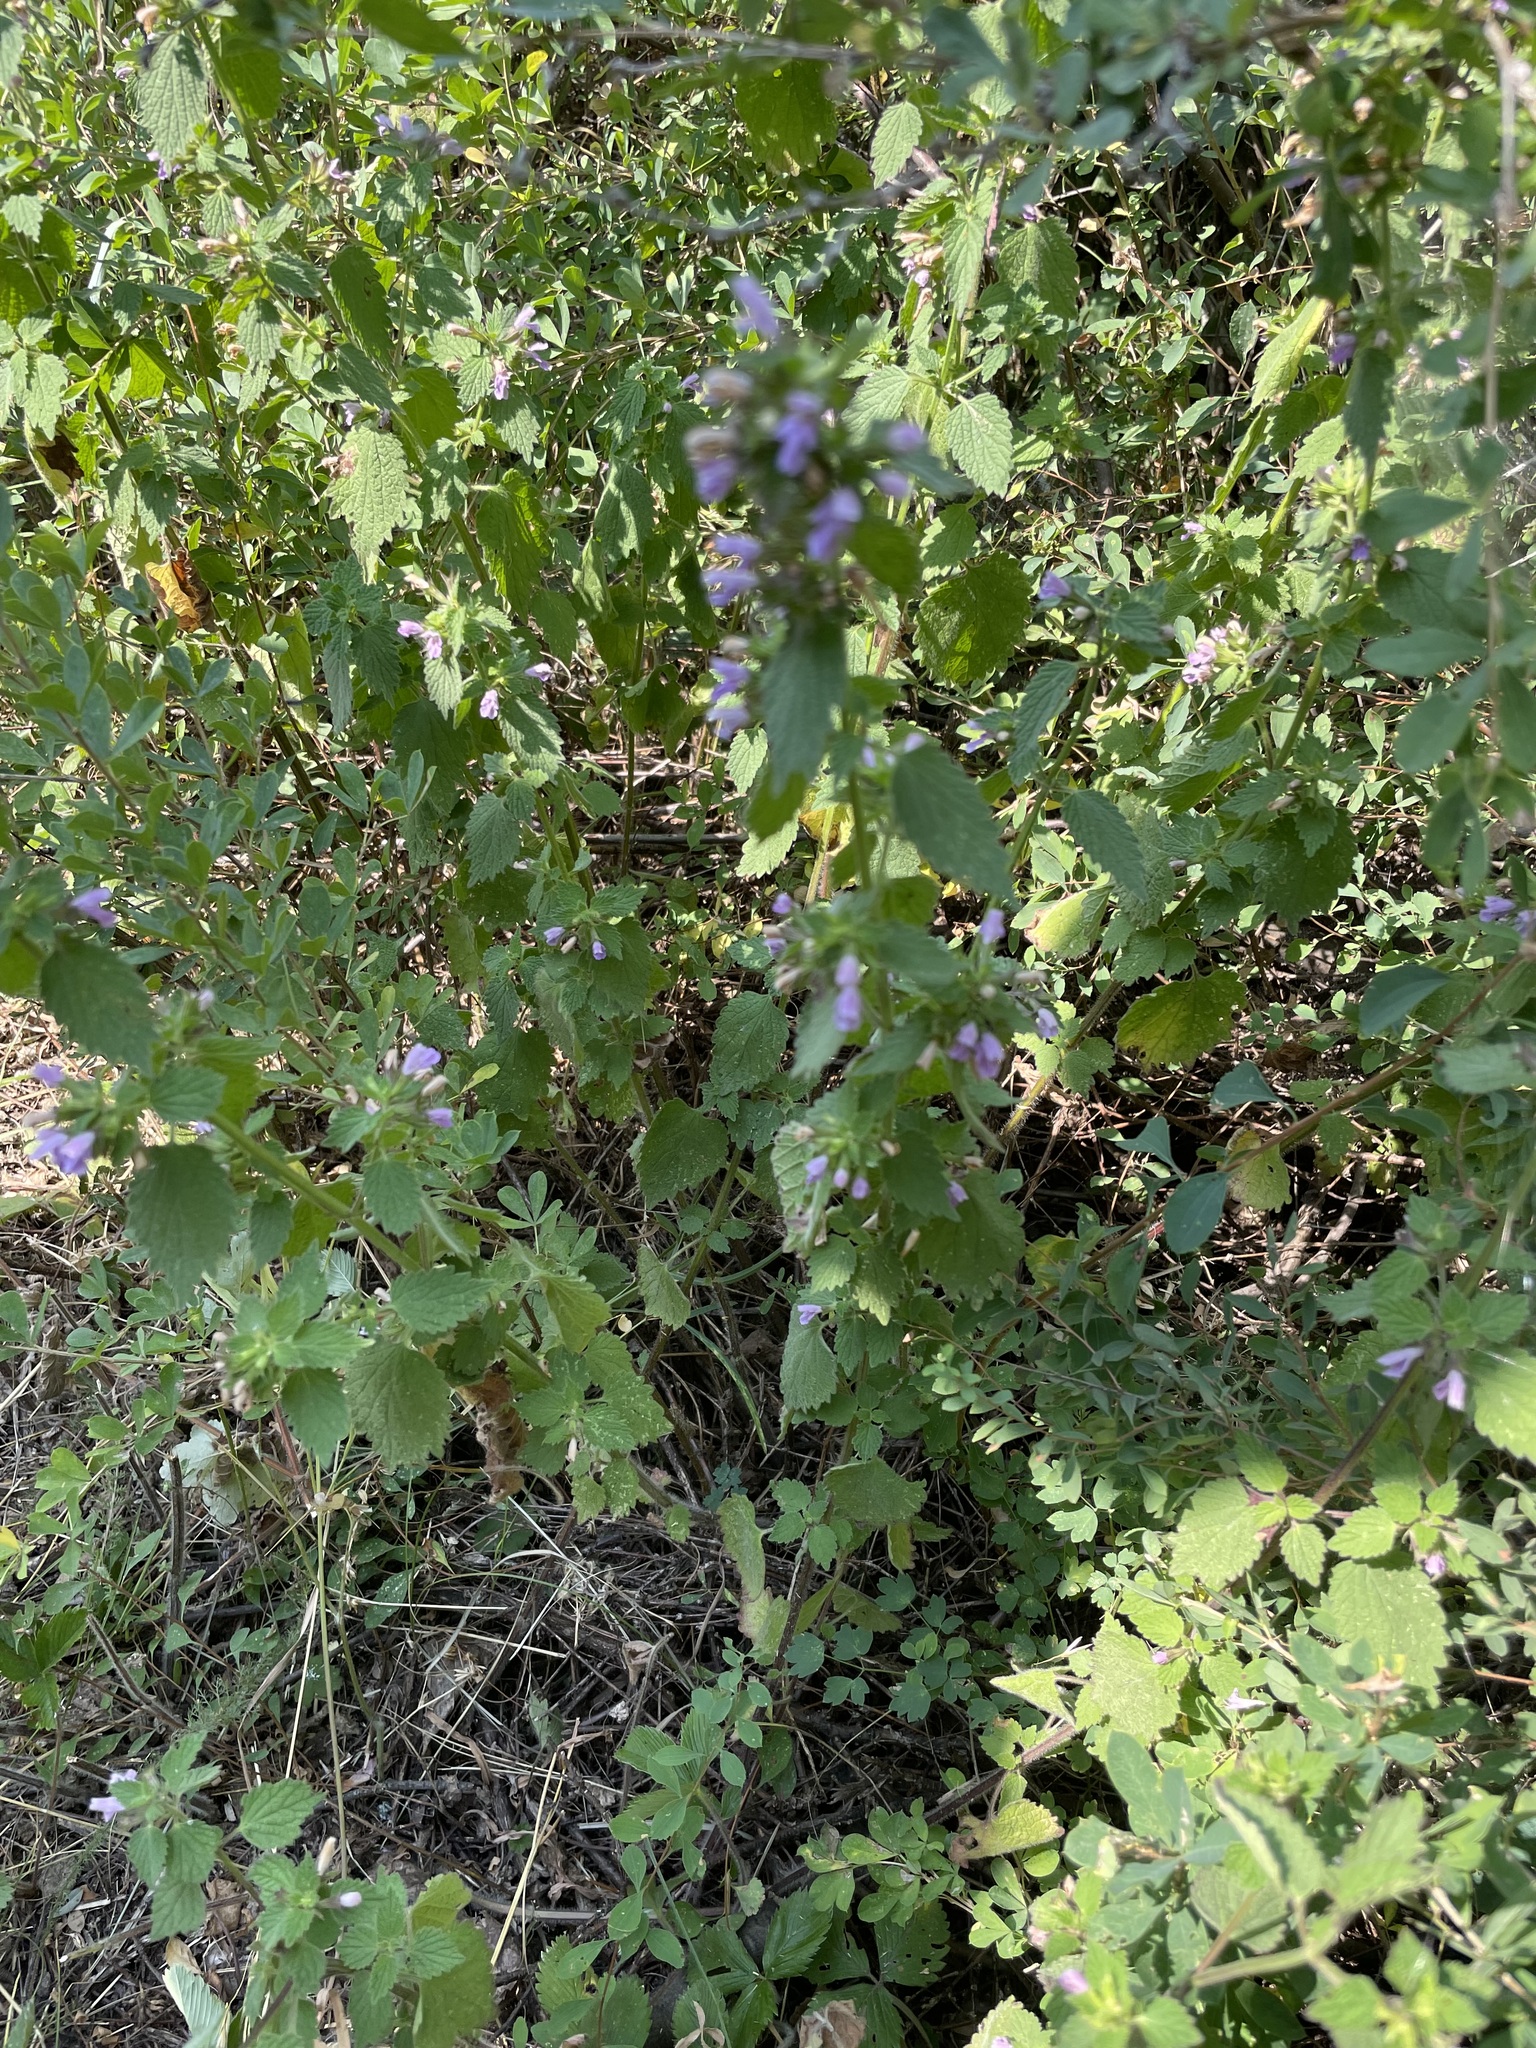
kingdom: Plantae
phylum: Tracheophyta
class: Magnoliopsida
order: Lamiales
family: Lamiaceae
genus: Ballota
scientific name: Ballota nigra
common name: Black horehound
